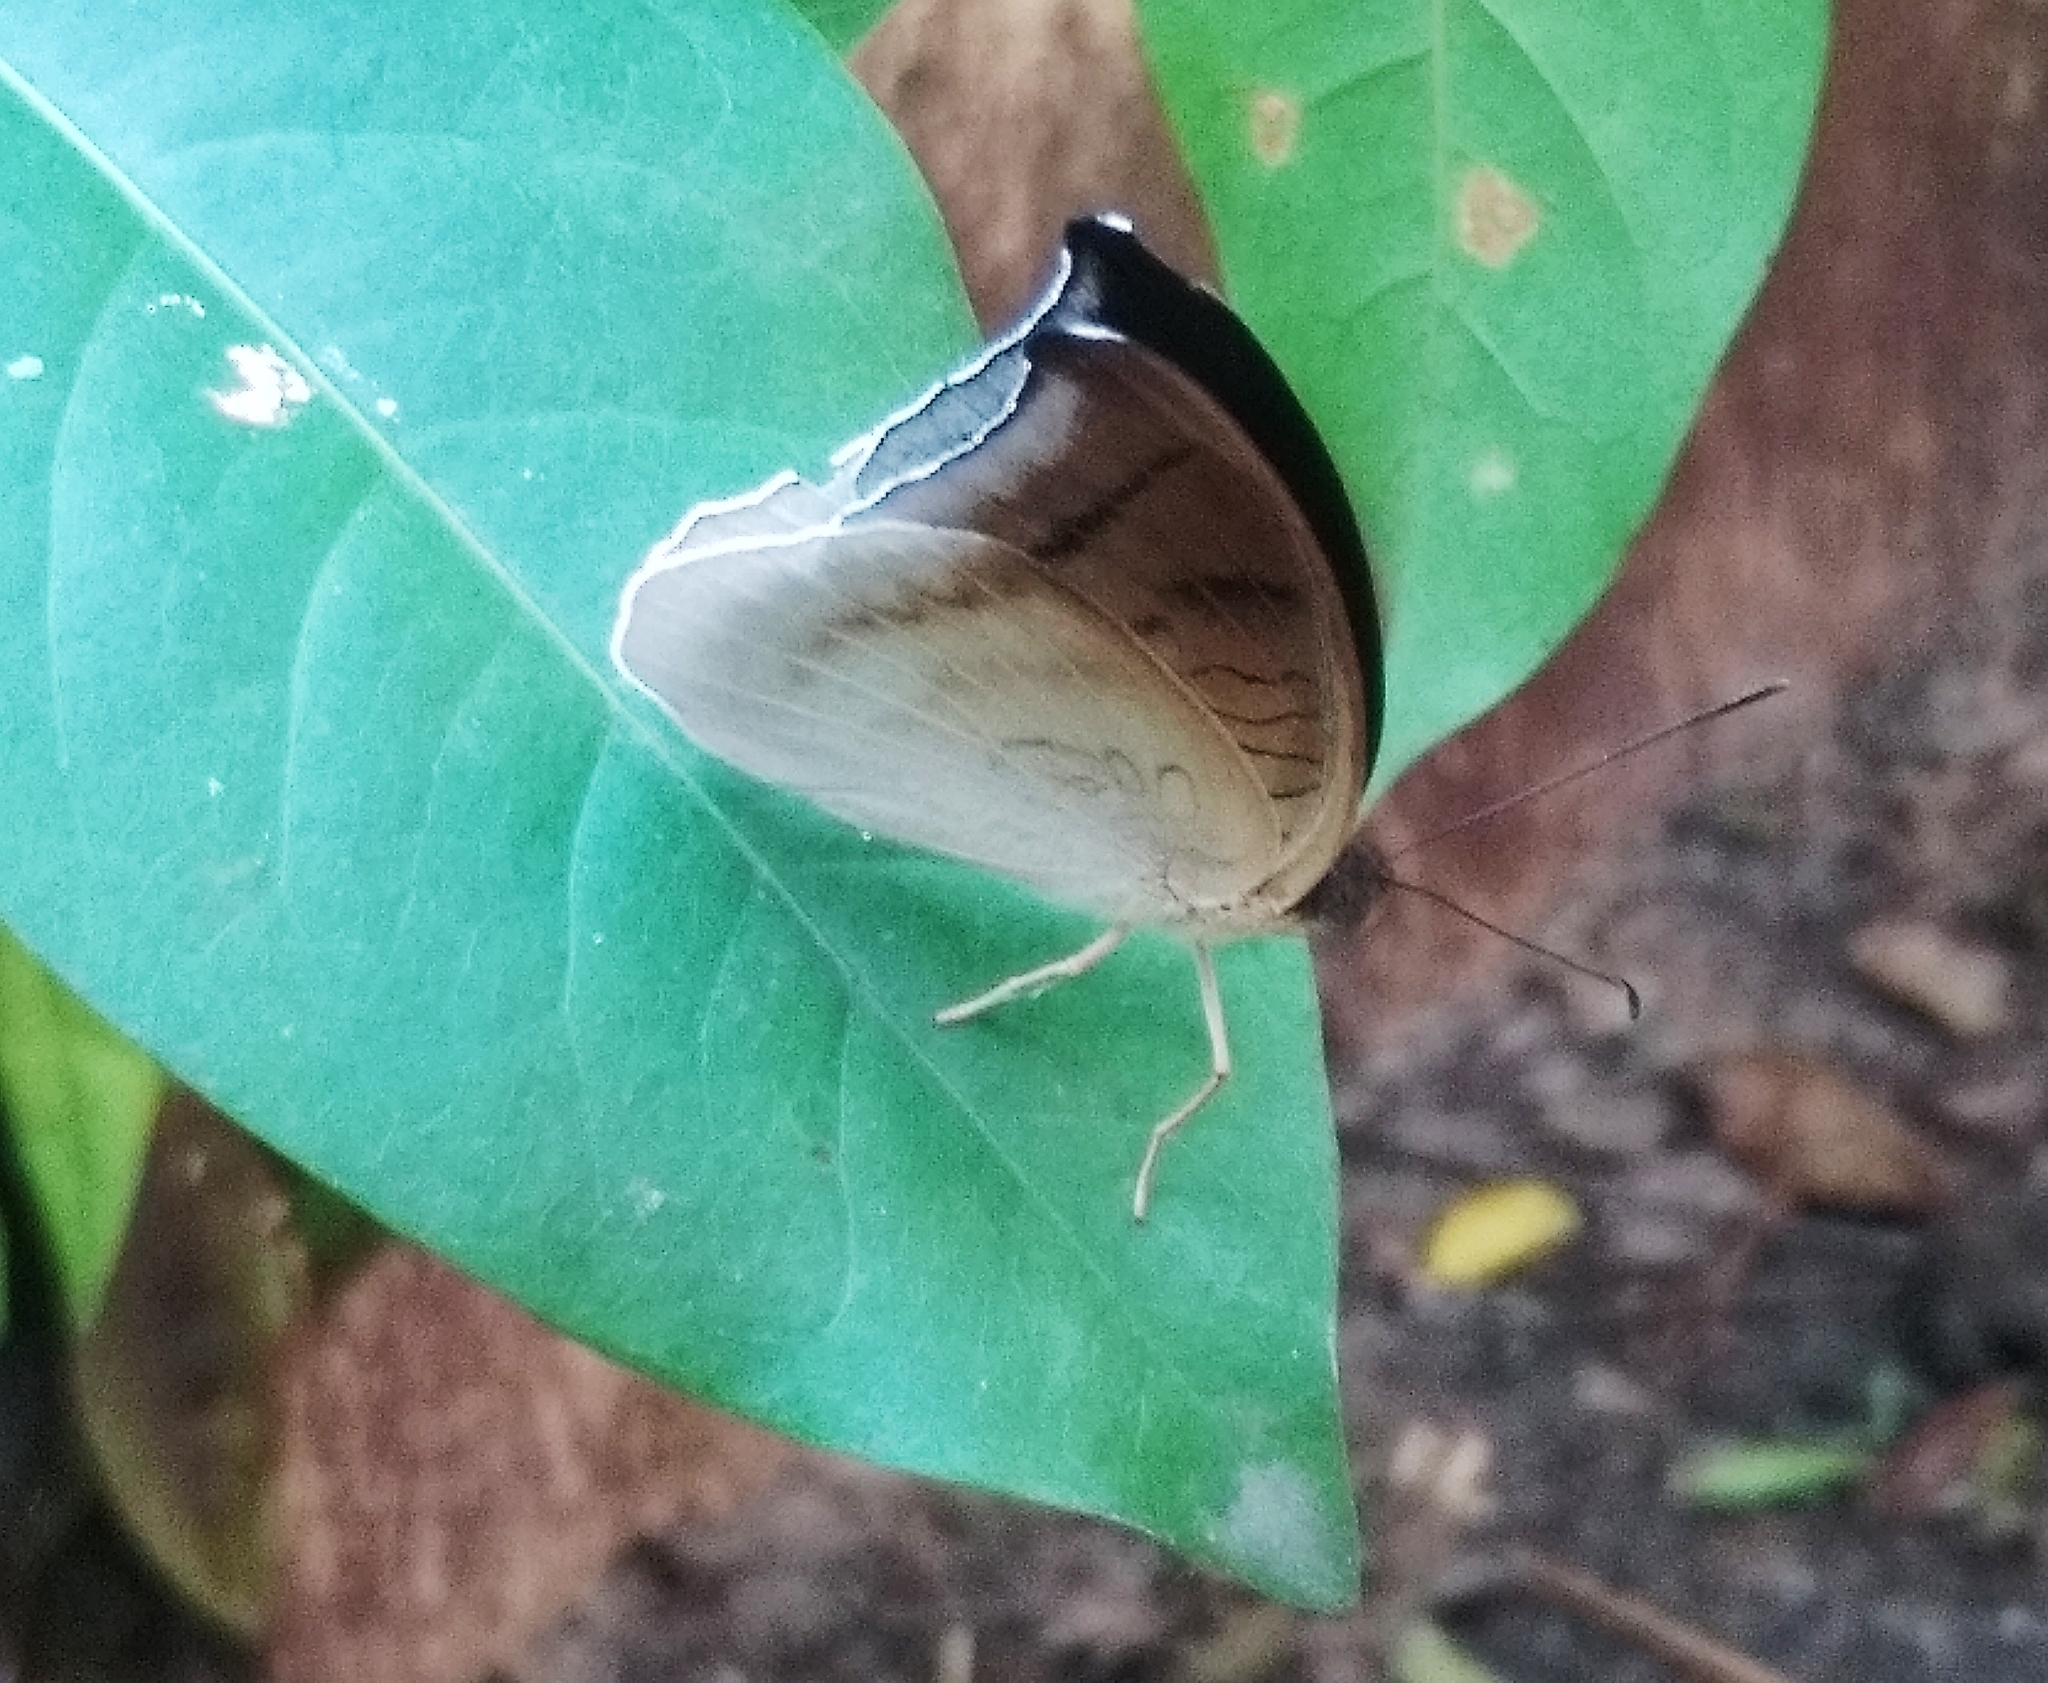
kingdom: Animalia
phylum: Arthropoda
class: Insecta
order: Lepidoptera
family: Nymphalidae
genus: Tanaecia
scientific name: Tanaecia lepidea
